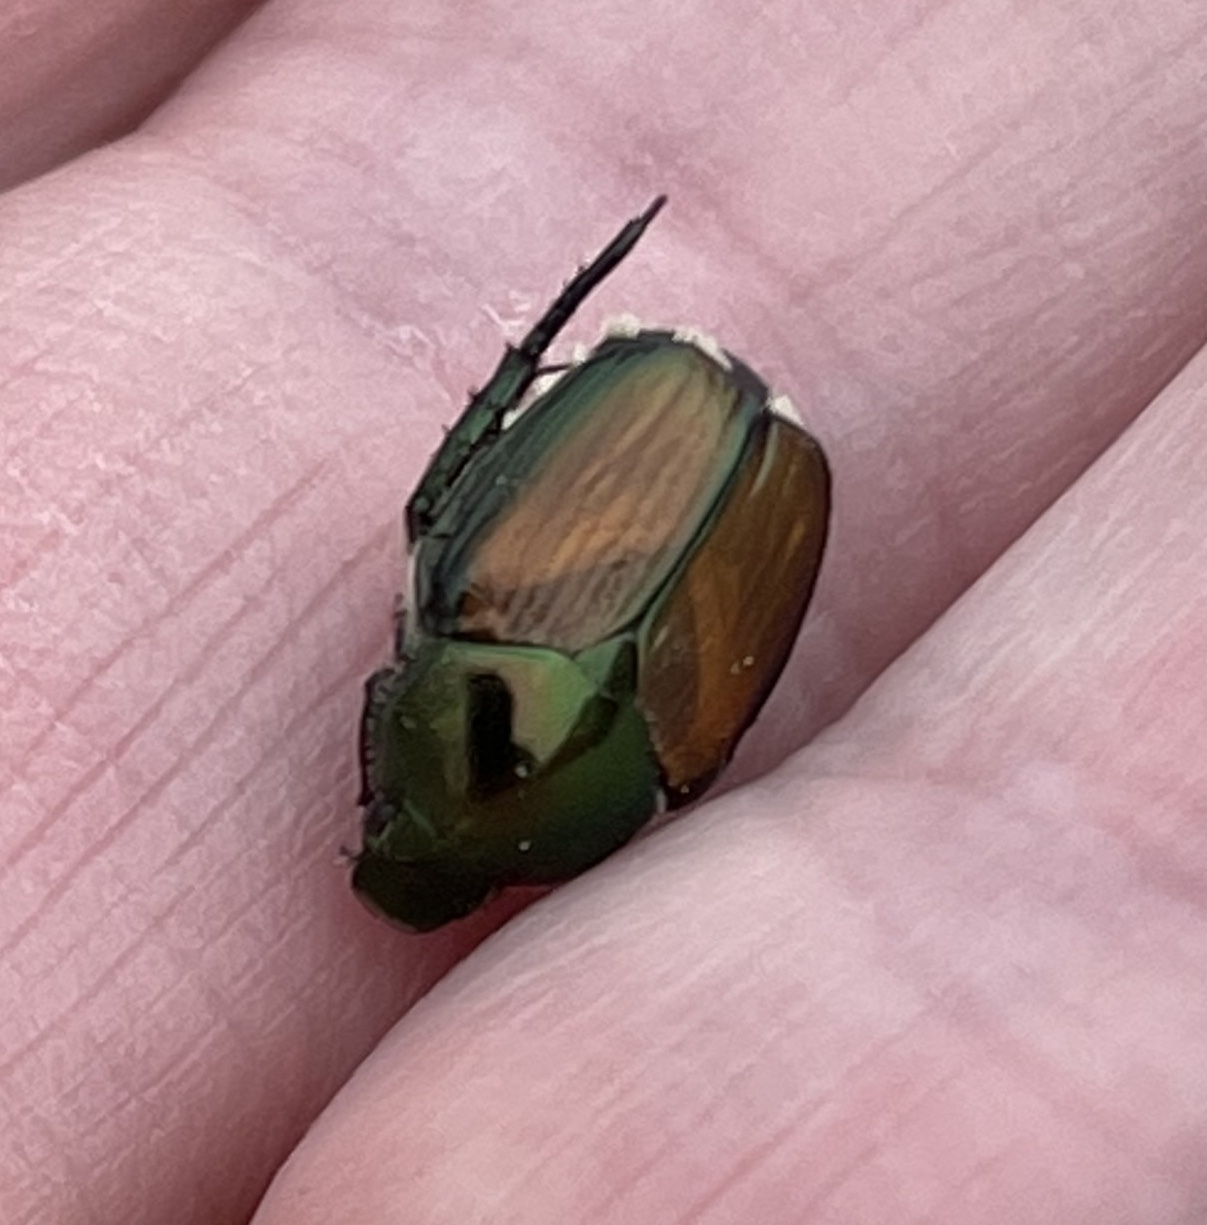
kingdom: Animalia
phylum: Arthropoda
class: Insecta
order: Coleoptera
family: Scarabaeidae
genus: Popillia
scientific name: Popillia japonica
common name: Japanese beetle
